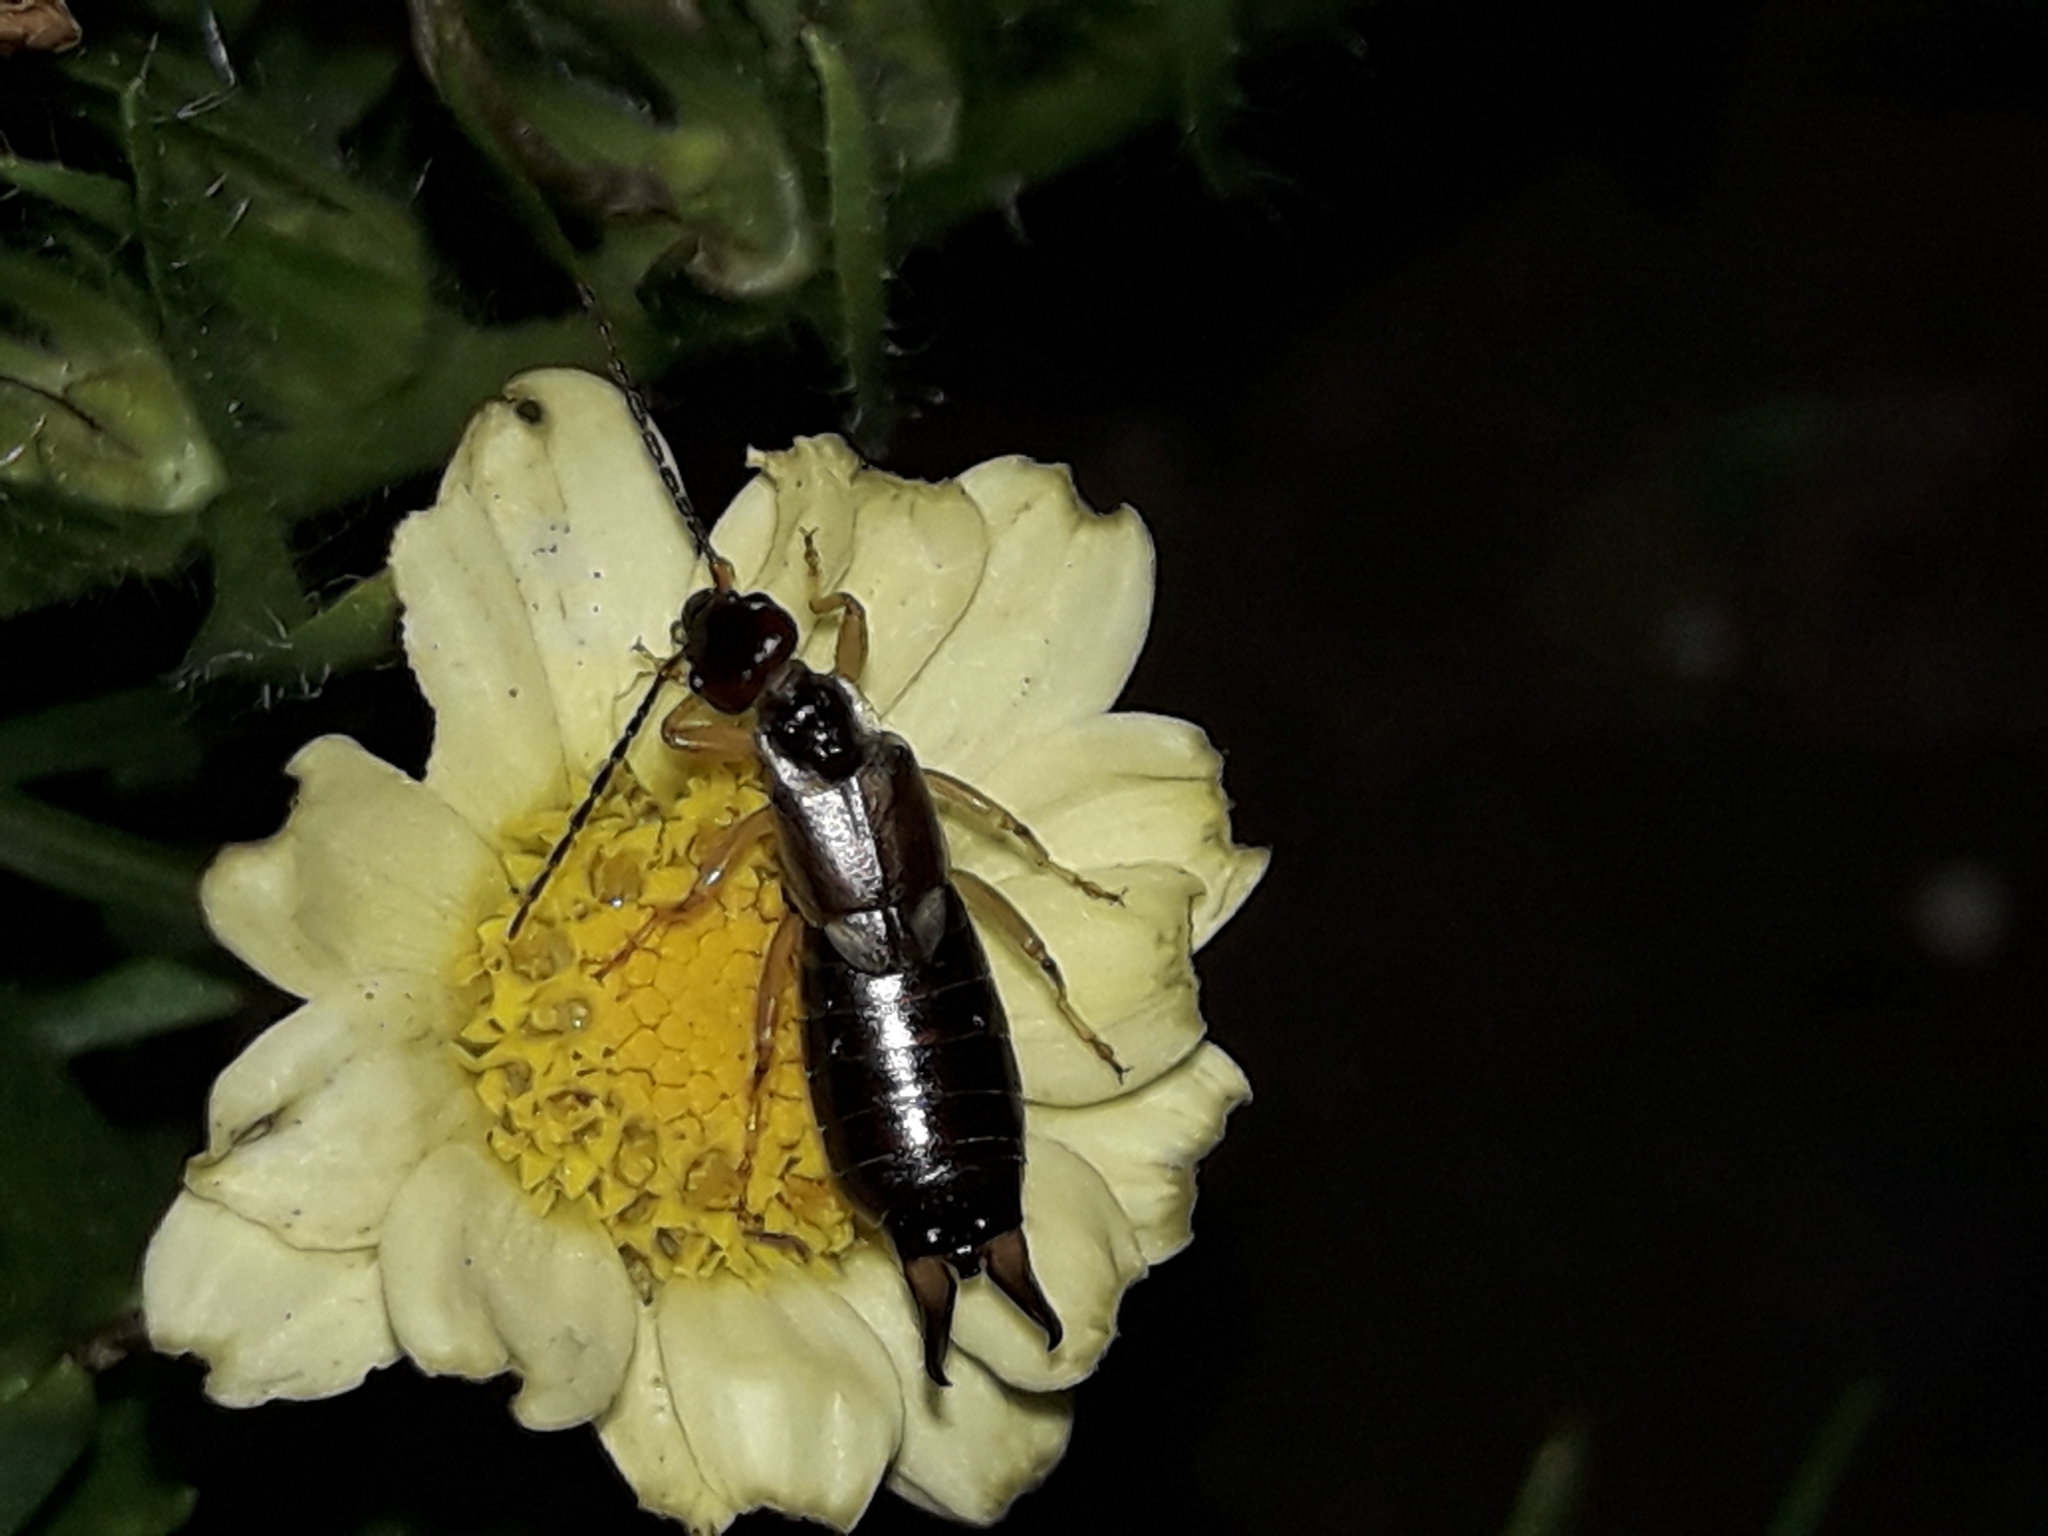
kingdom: Animalia
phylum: Arthropoda
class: Insecta
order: Dermaptera
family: Forficulidae
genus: Forficula
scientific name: Forficula
